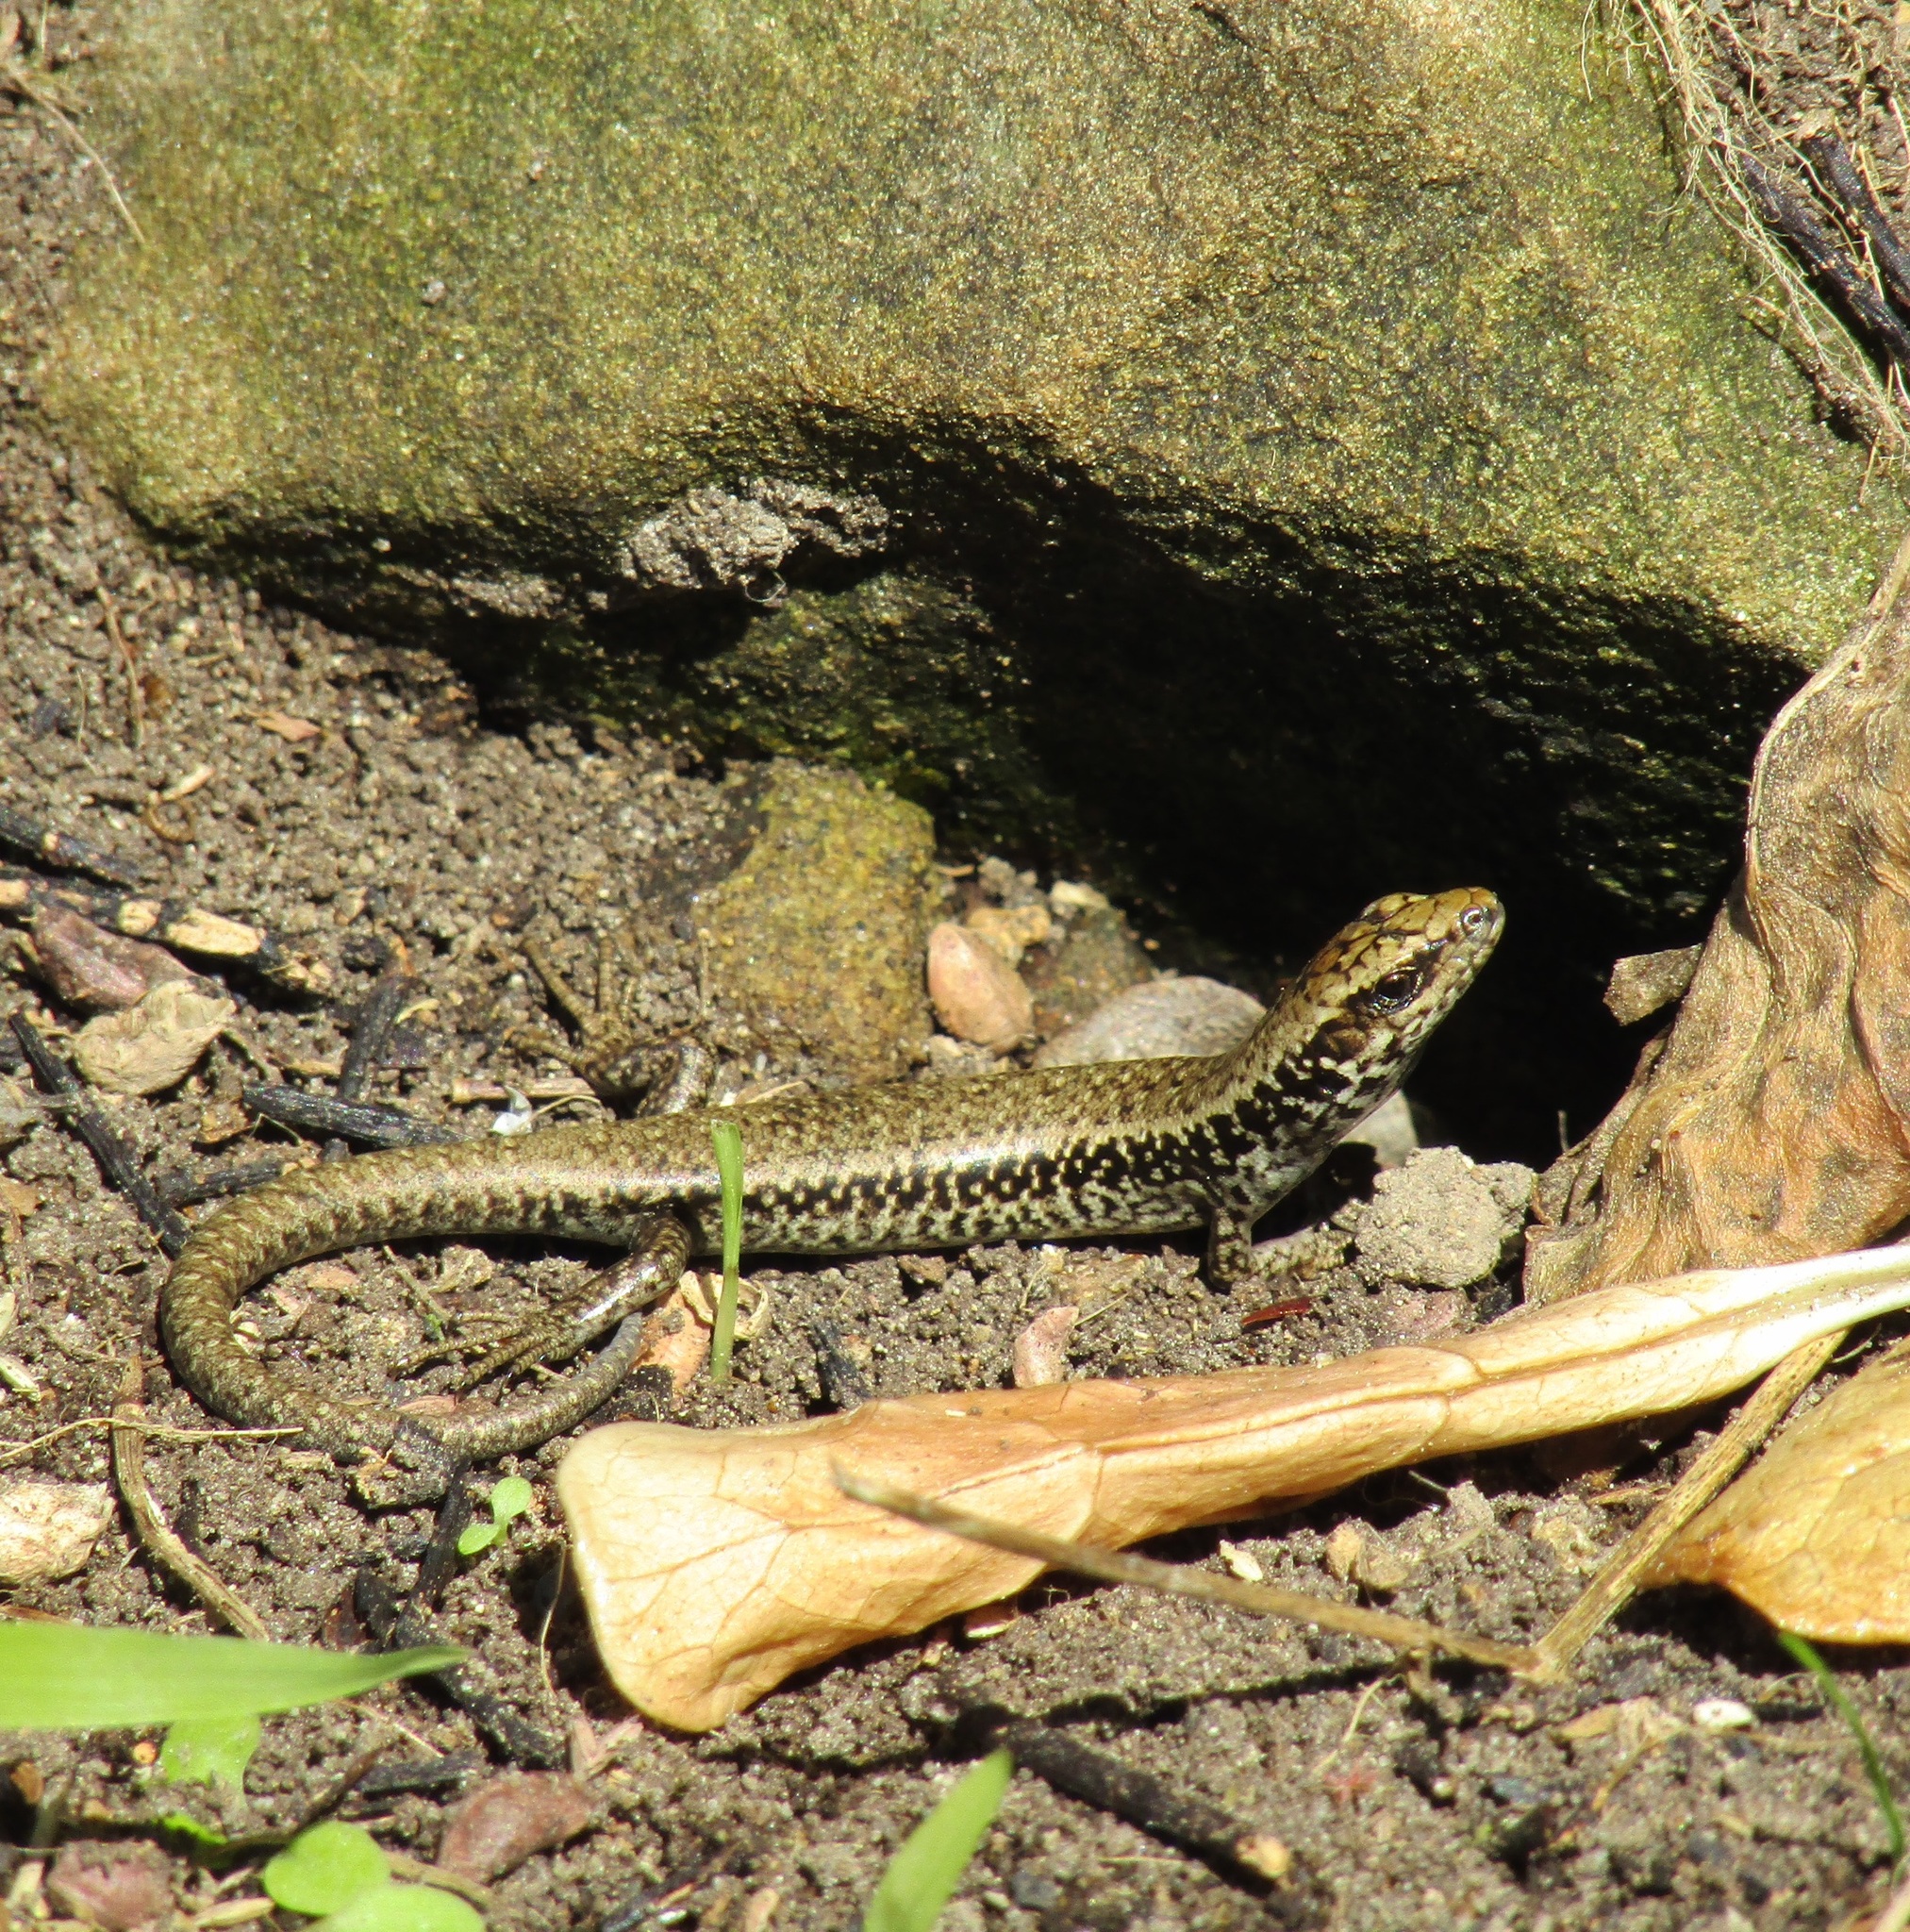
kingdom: Animalia
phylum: Chordata
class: Squamata
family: Scincidae
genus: Oligosoma
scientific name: Oligosoma kokowai
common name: Northern spotted skink
